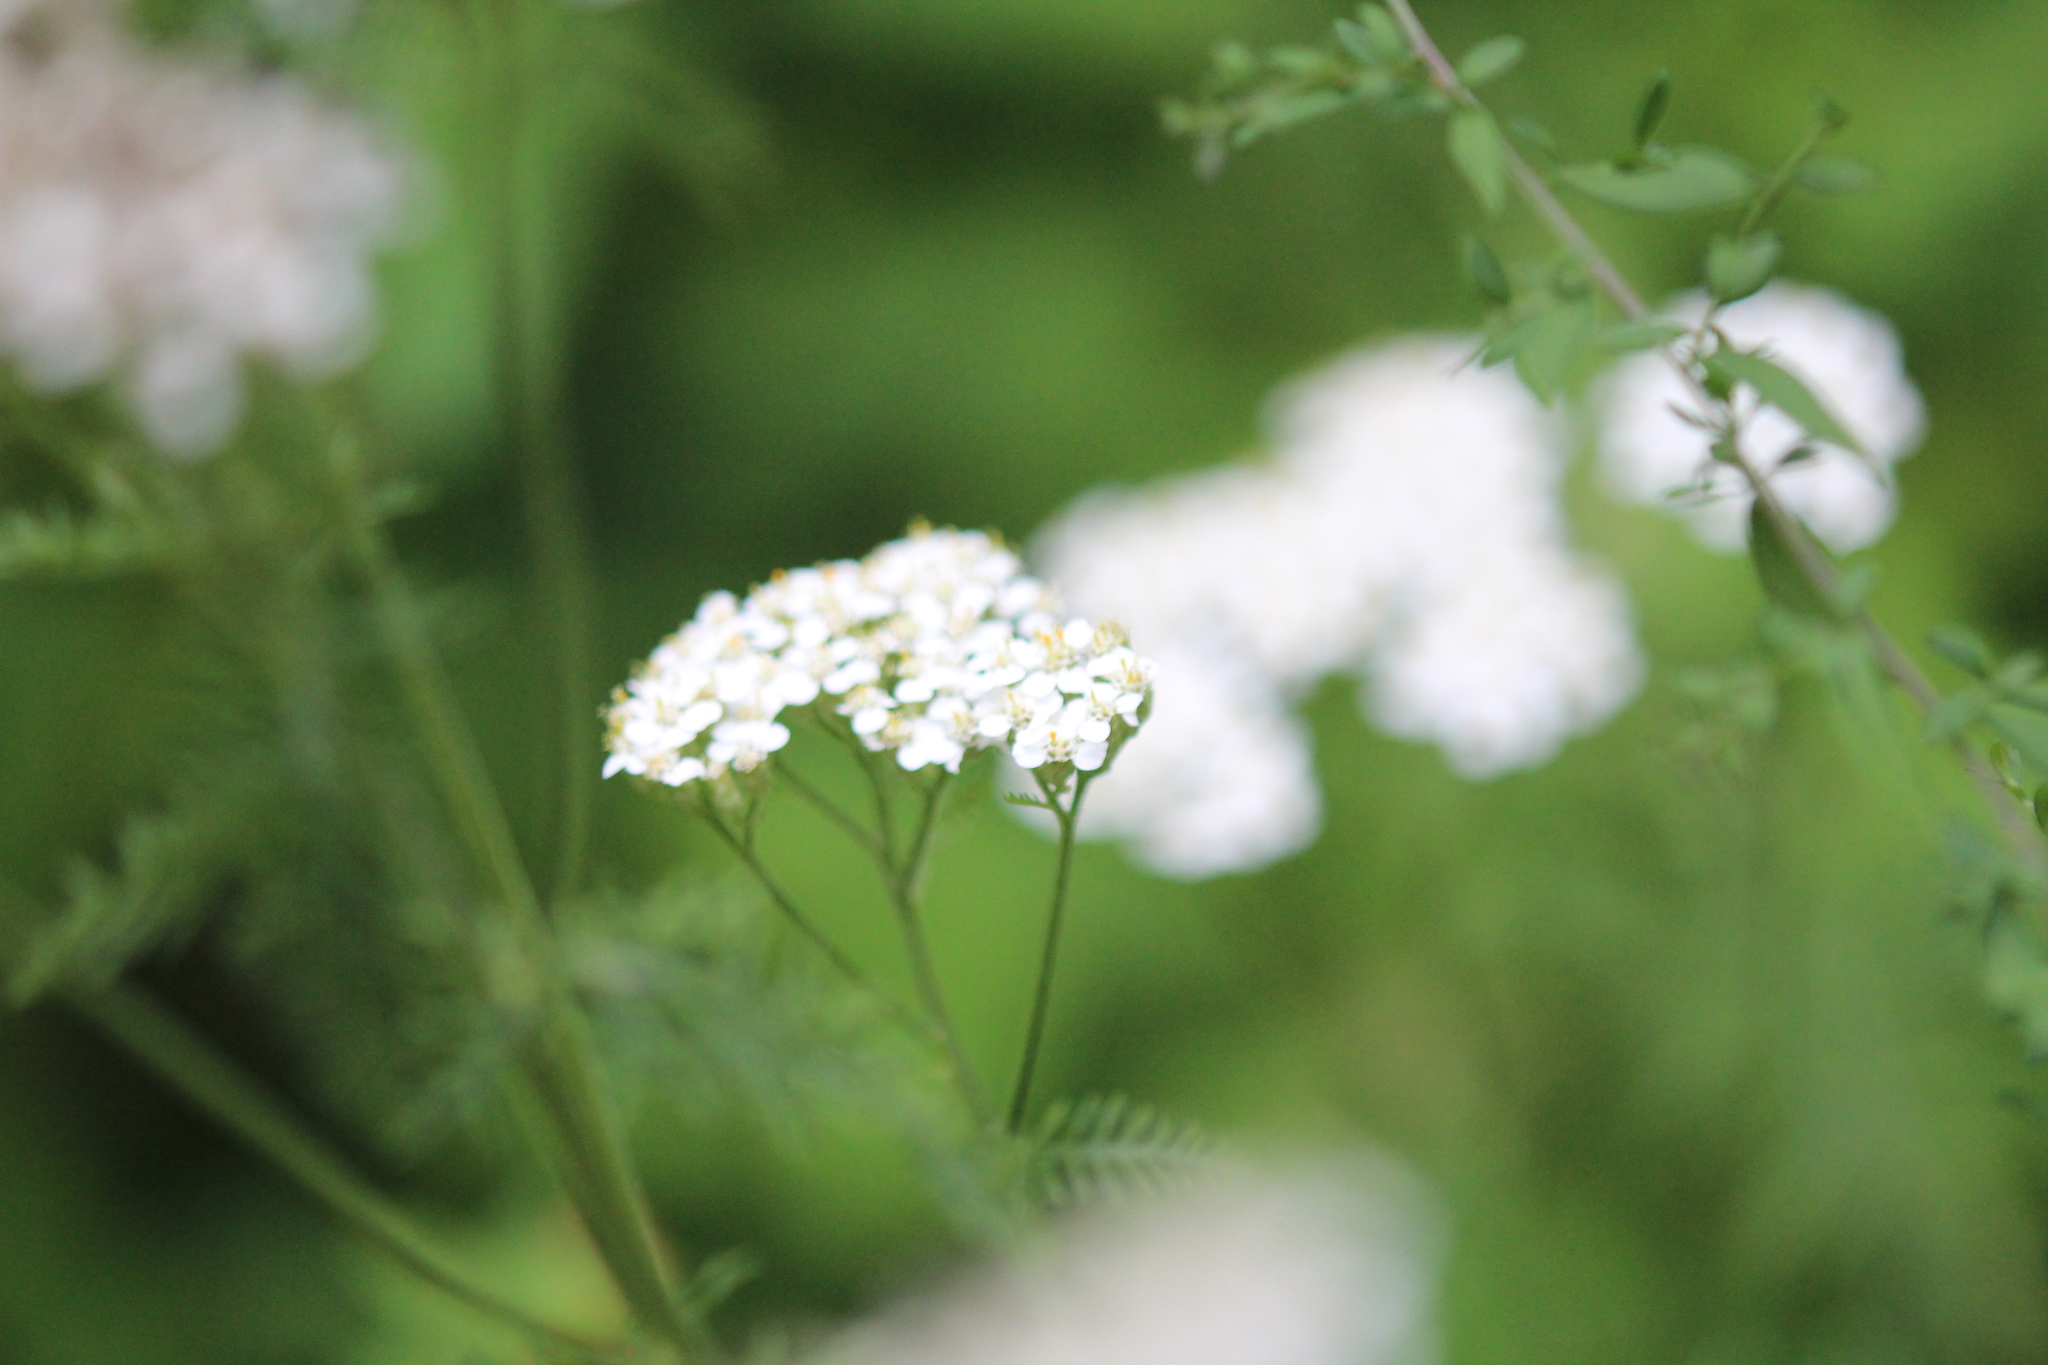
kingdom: Plantae
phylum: Tracheophyta
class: Magnoliopsida
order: Asterales
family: Asteraceae
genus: Achillea
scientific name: Achillea millefolium
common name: Yarrow
